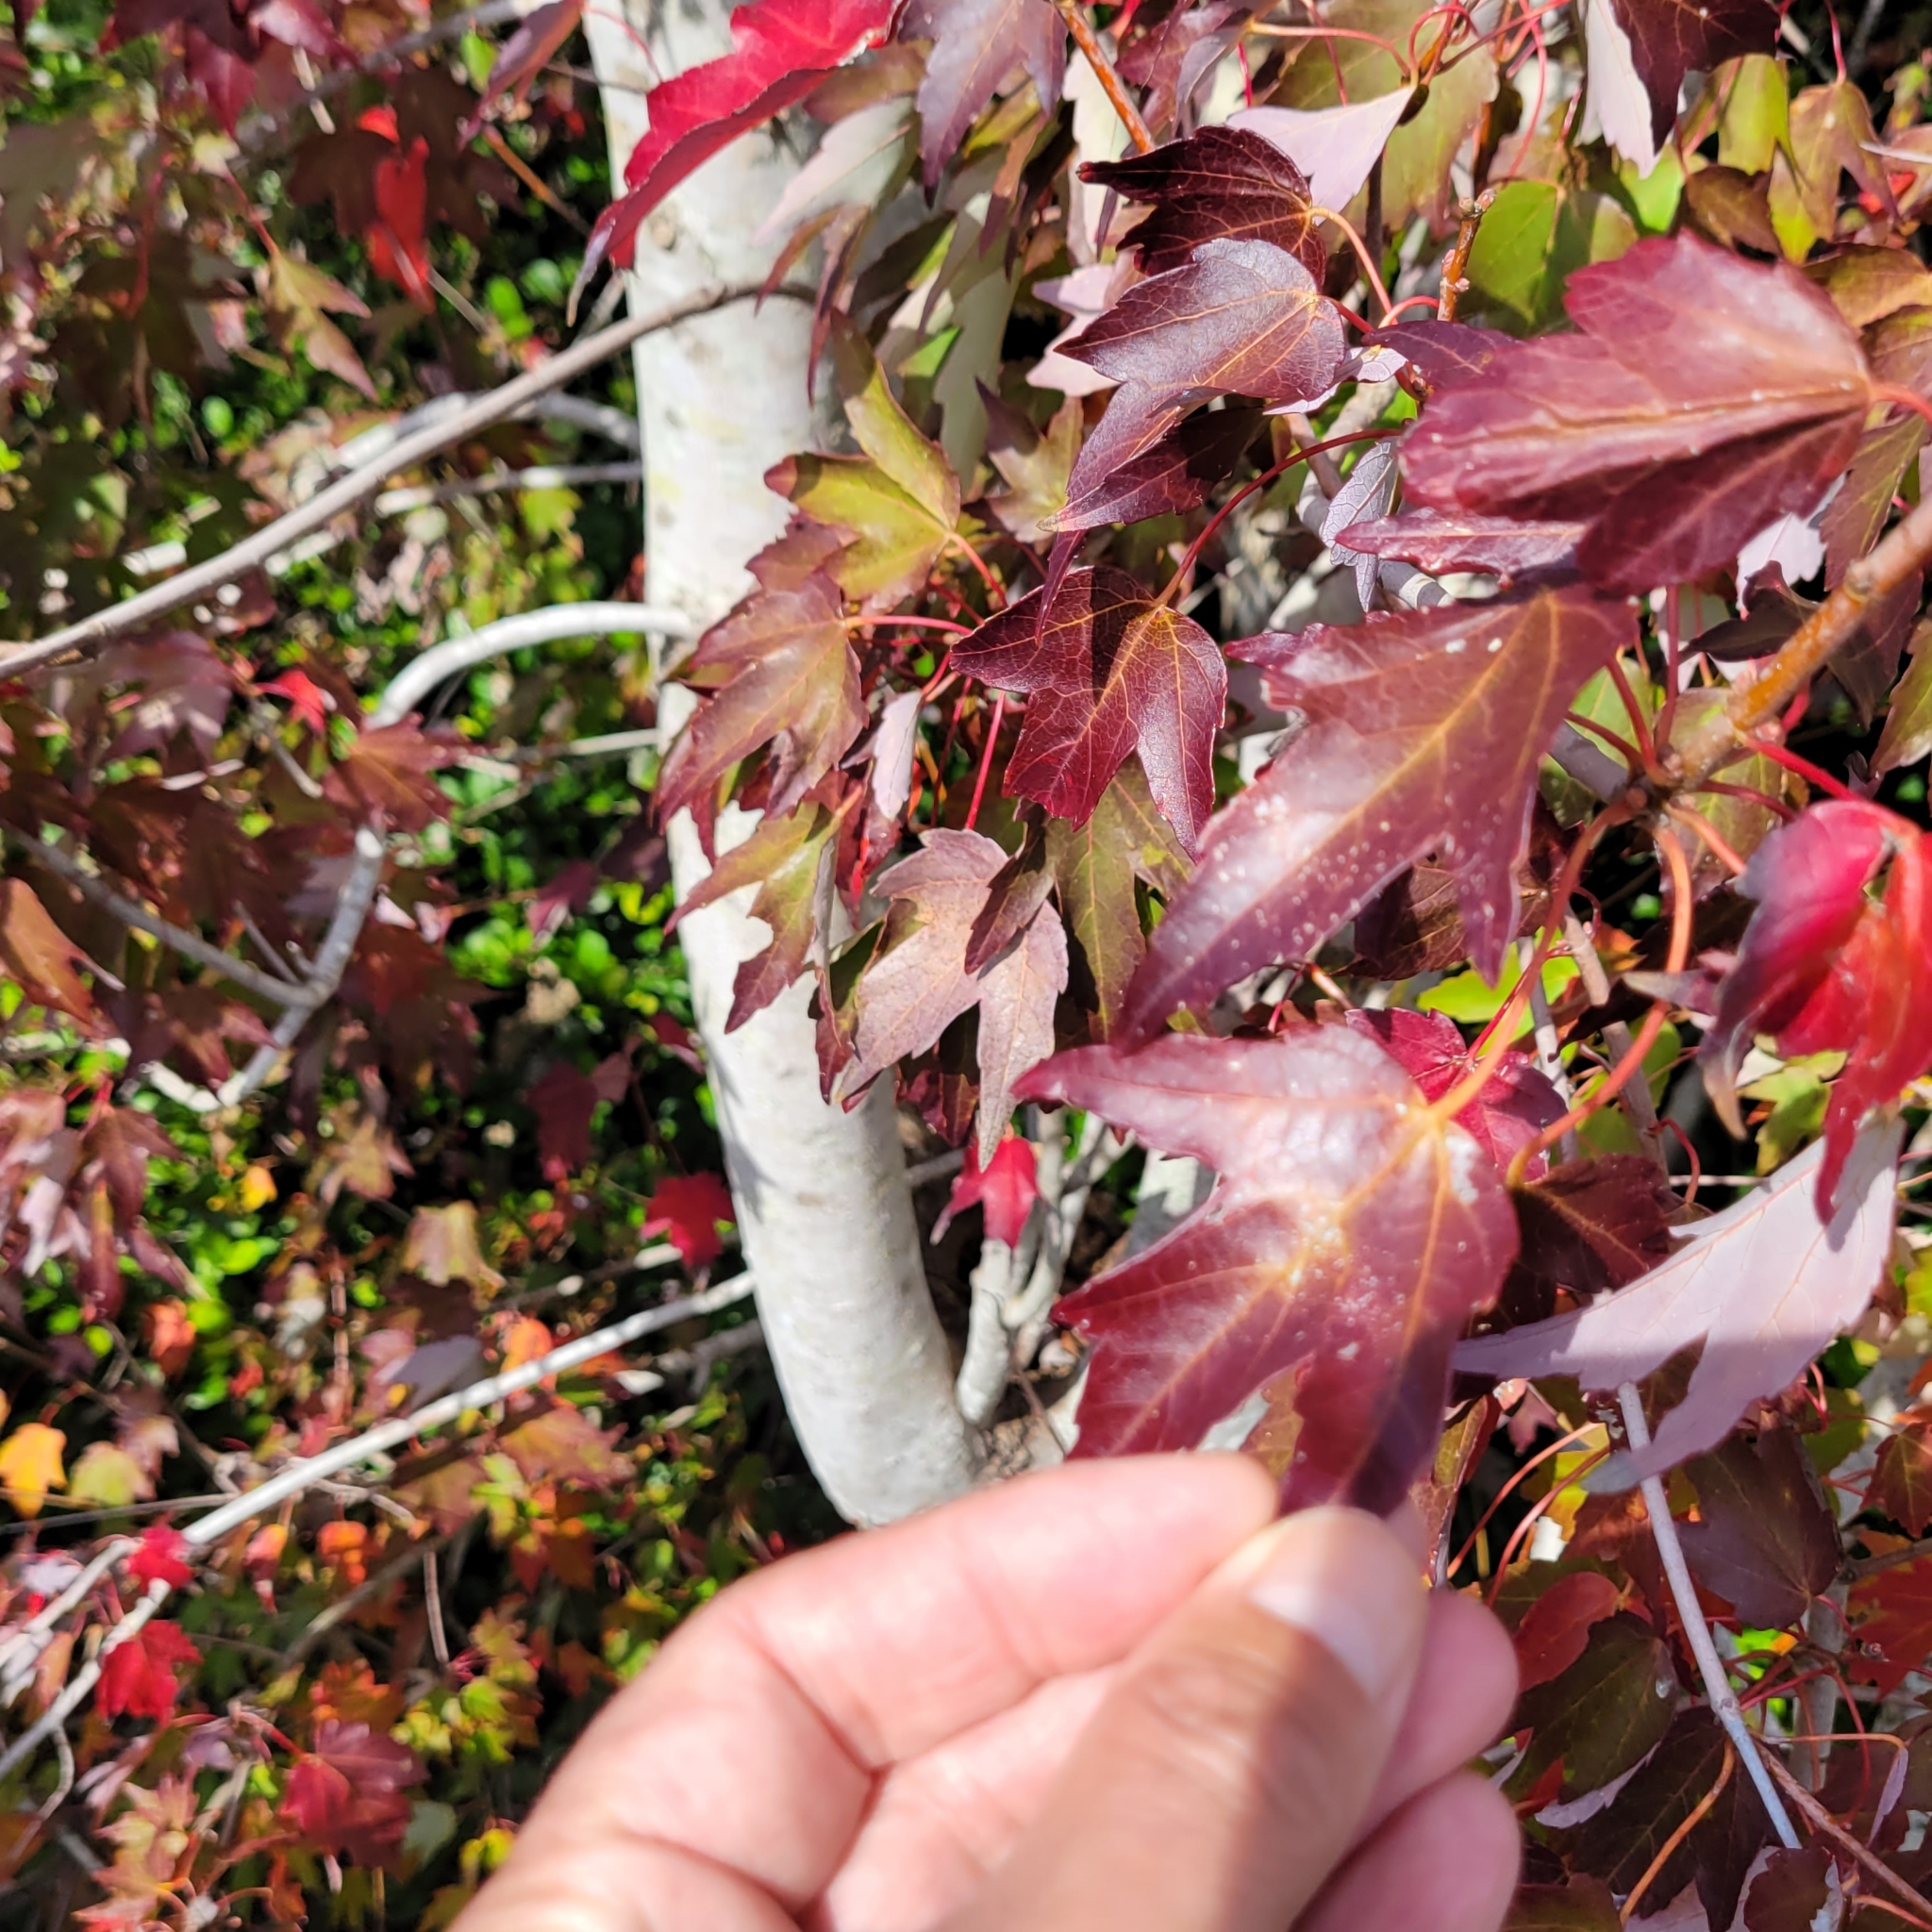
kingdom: Plantae
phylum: Tracheophyta
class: Magnoliopsida
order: Sapindales
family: Sapindaceae
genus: Acer
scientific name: Acer rubrum
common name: Red maple
